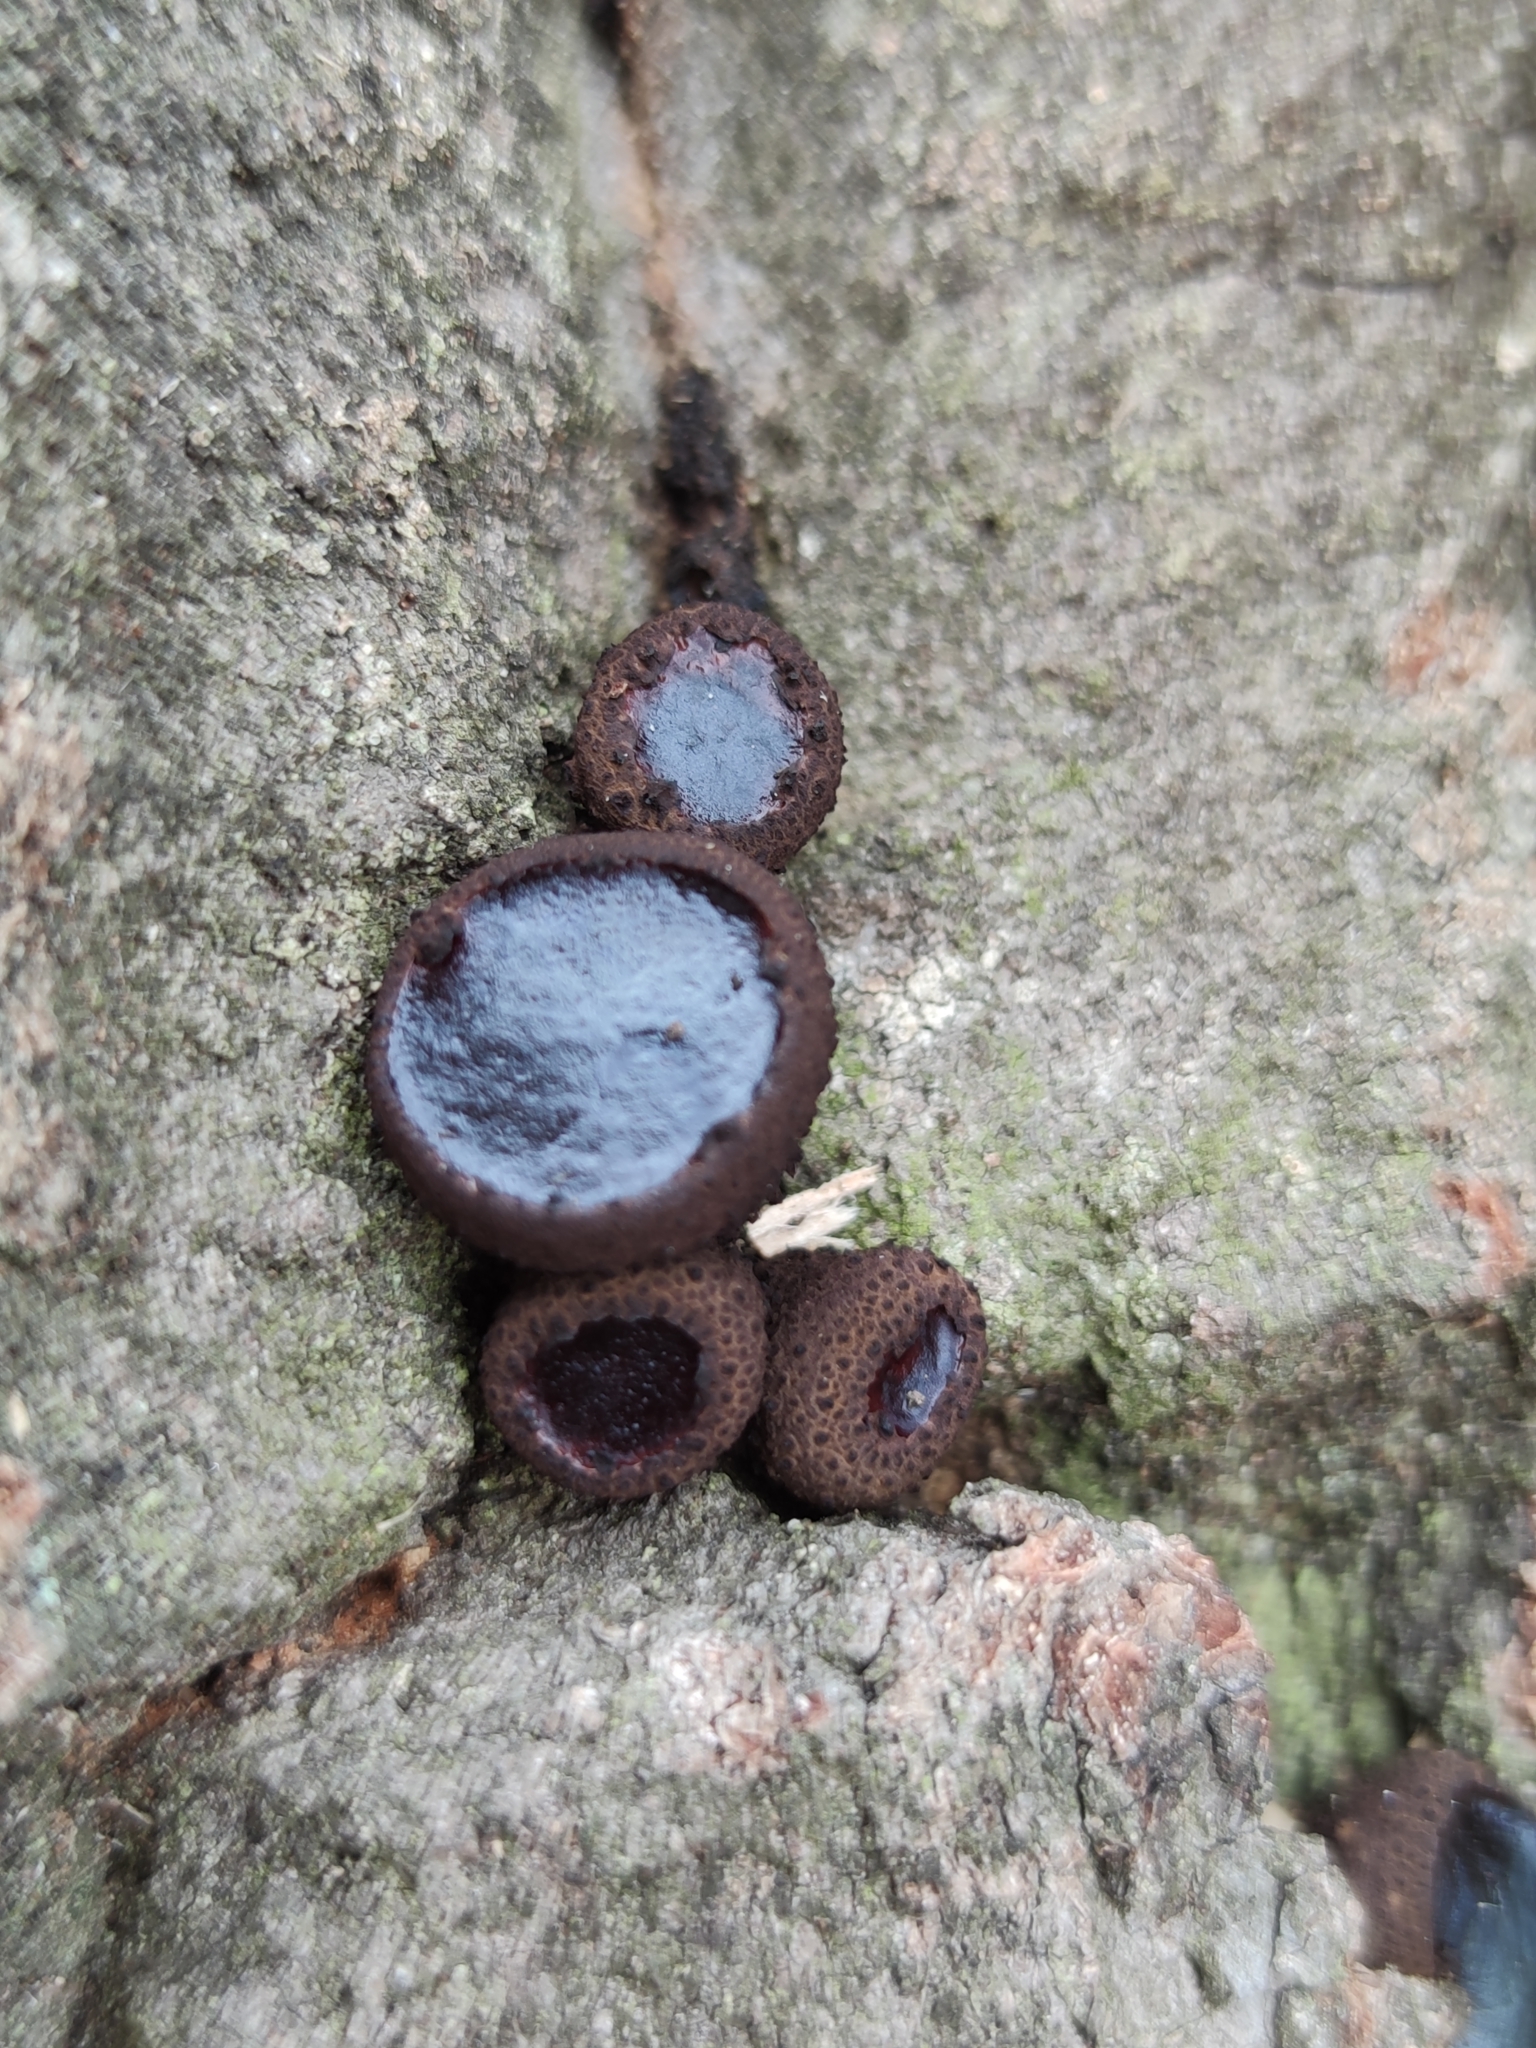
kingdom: Fungi
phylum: Ascomycota
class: Leotiomycetes
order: Phacidiales
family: Phacidiaceae
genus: Bulgaria
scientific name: Bulgaria inquinans
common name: Black bulgar
